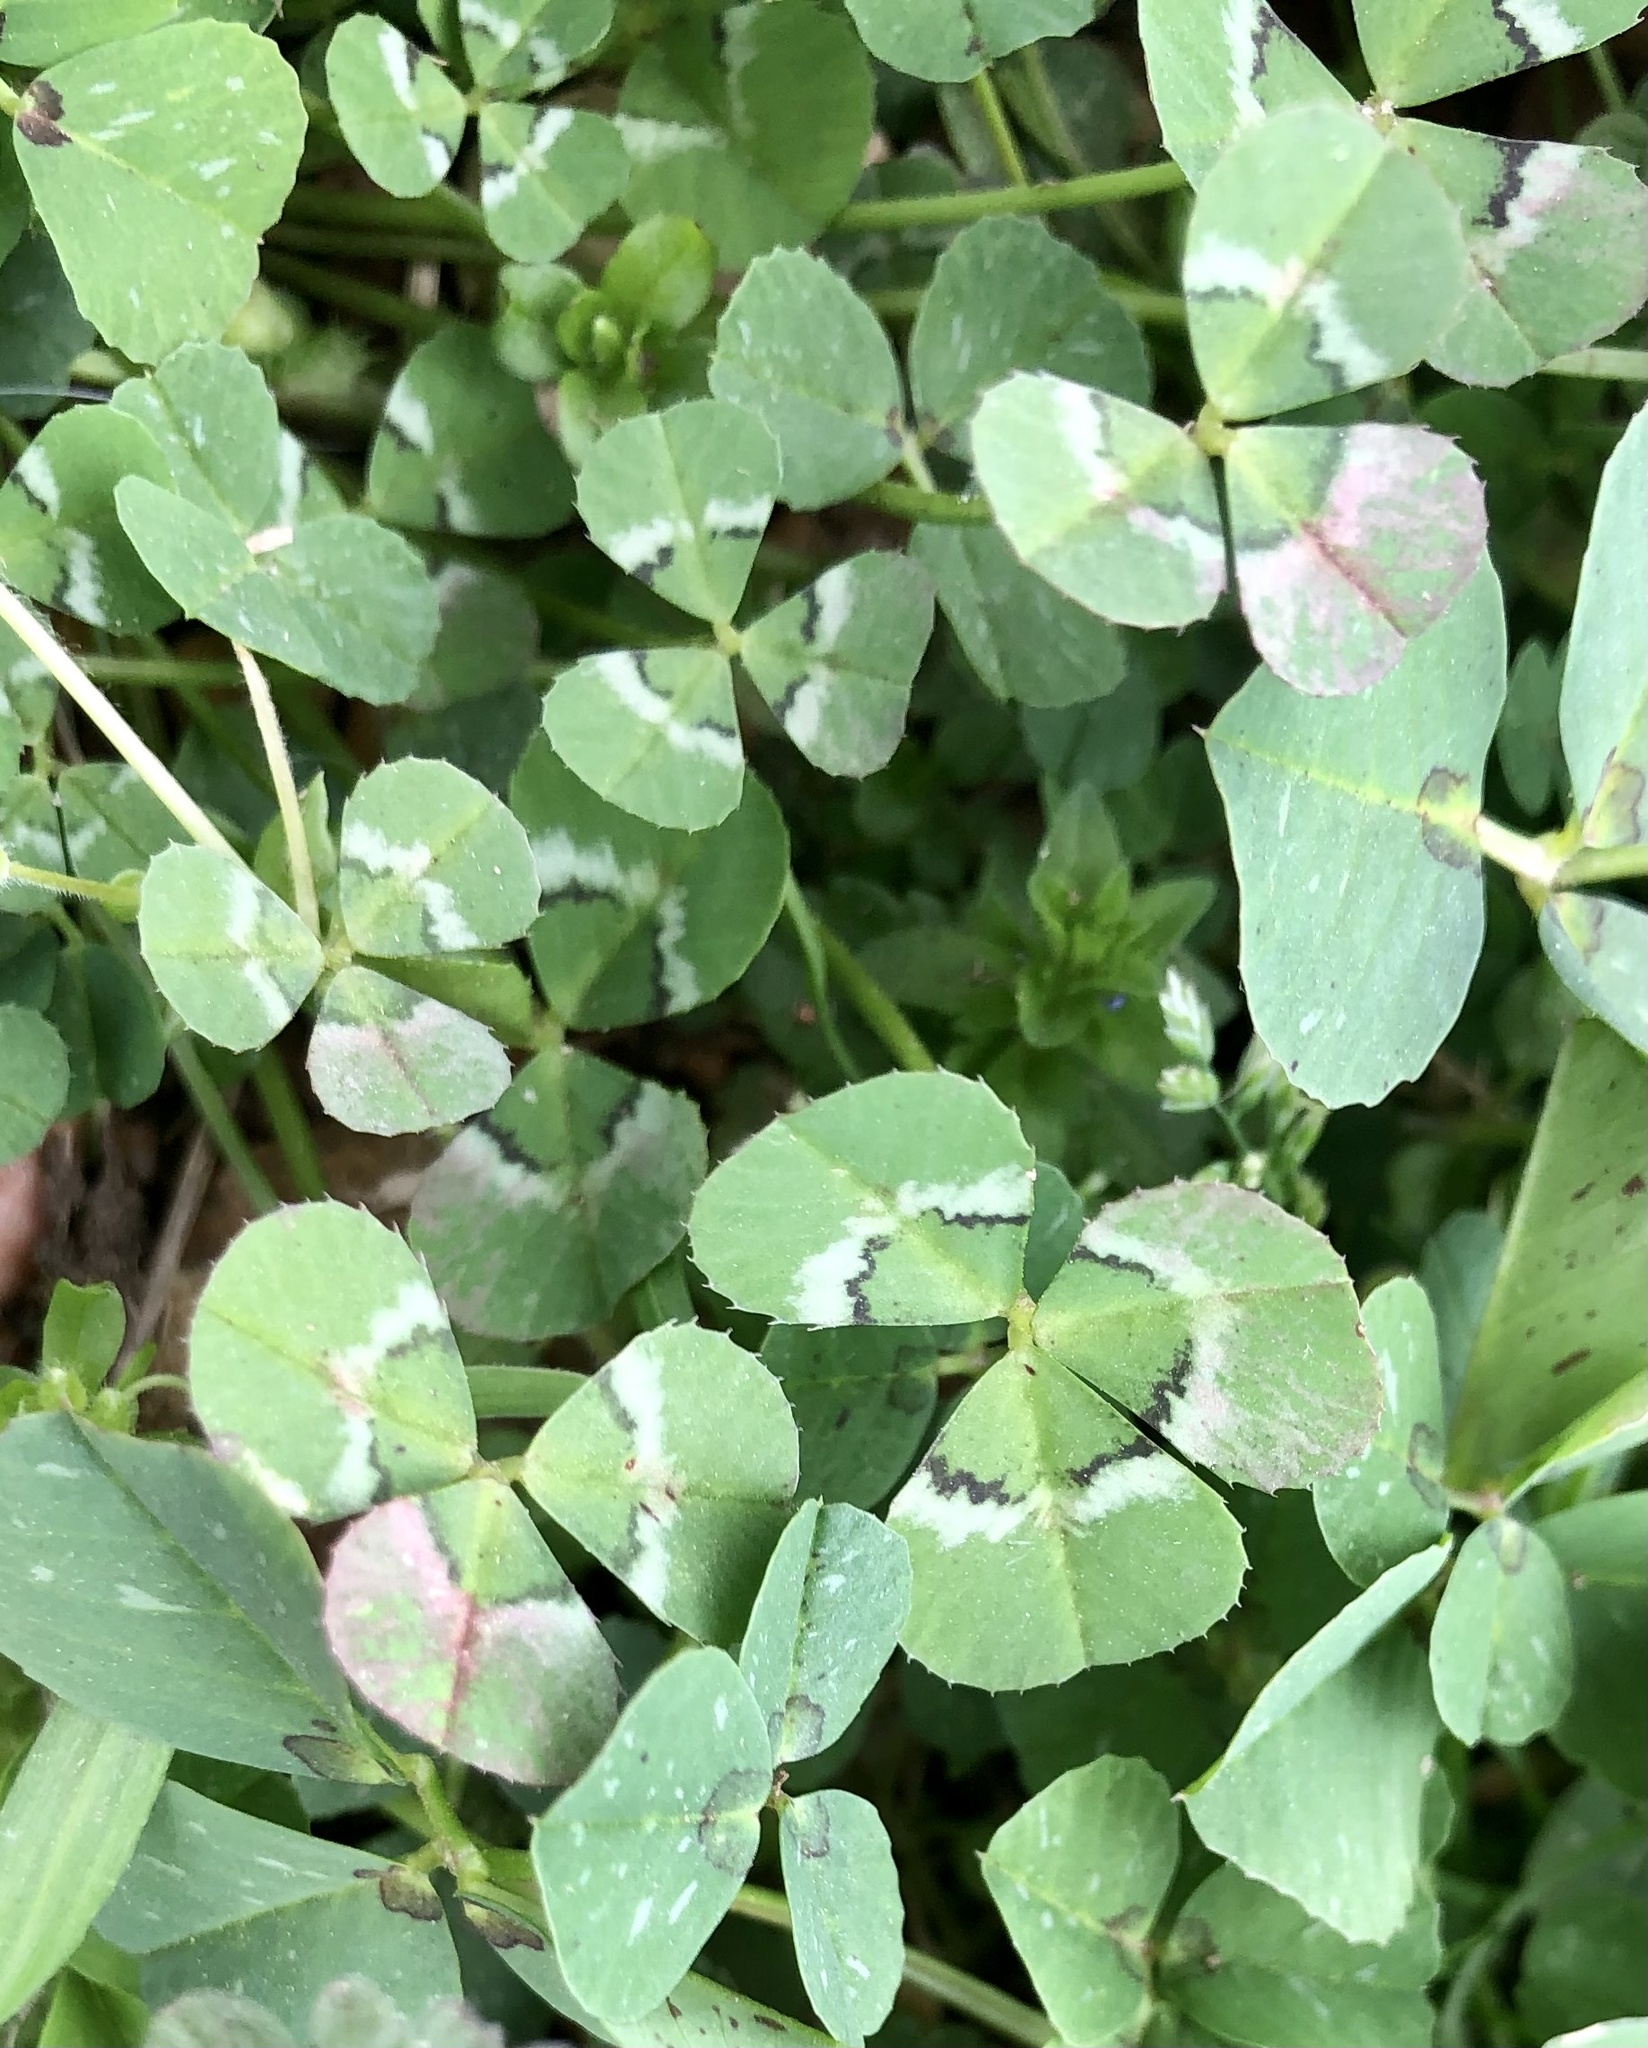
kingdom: Plantae
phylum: Tracheophyta
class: Magnoliopsida
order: Fabales
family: Fabaceae
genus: Trifolium
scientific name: Trifolium repens
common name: White clover
